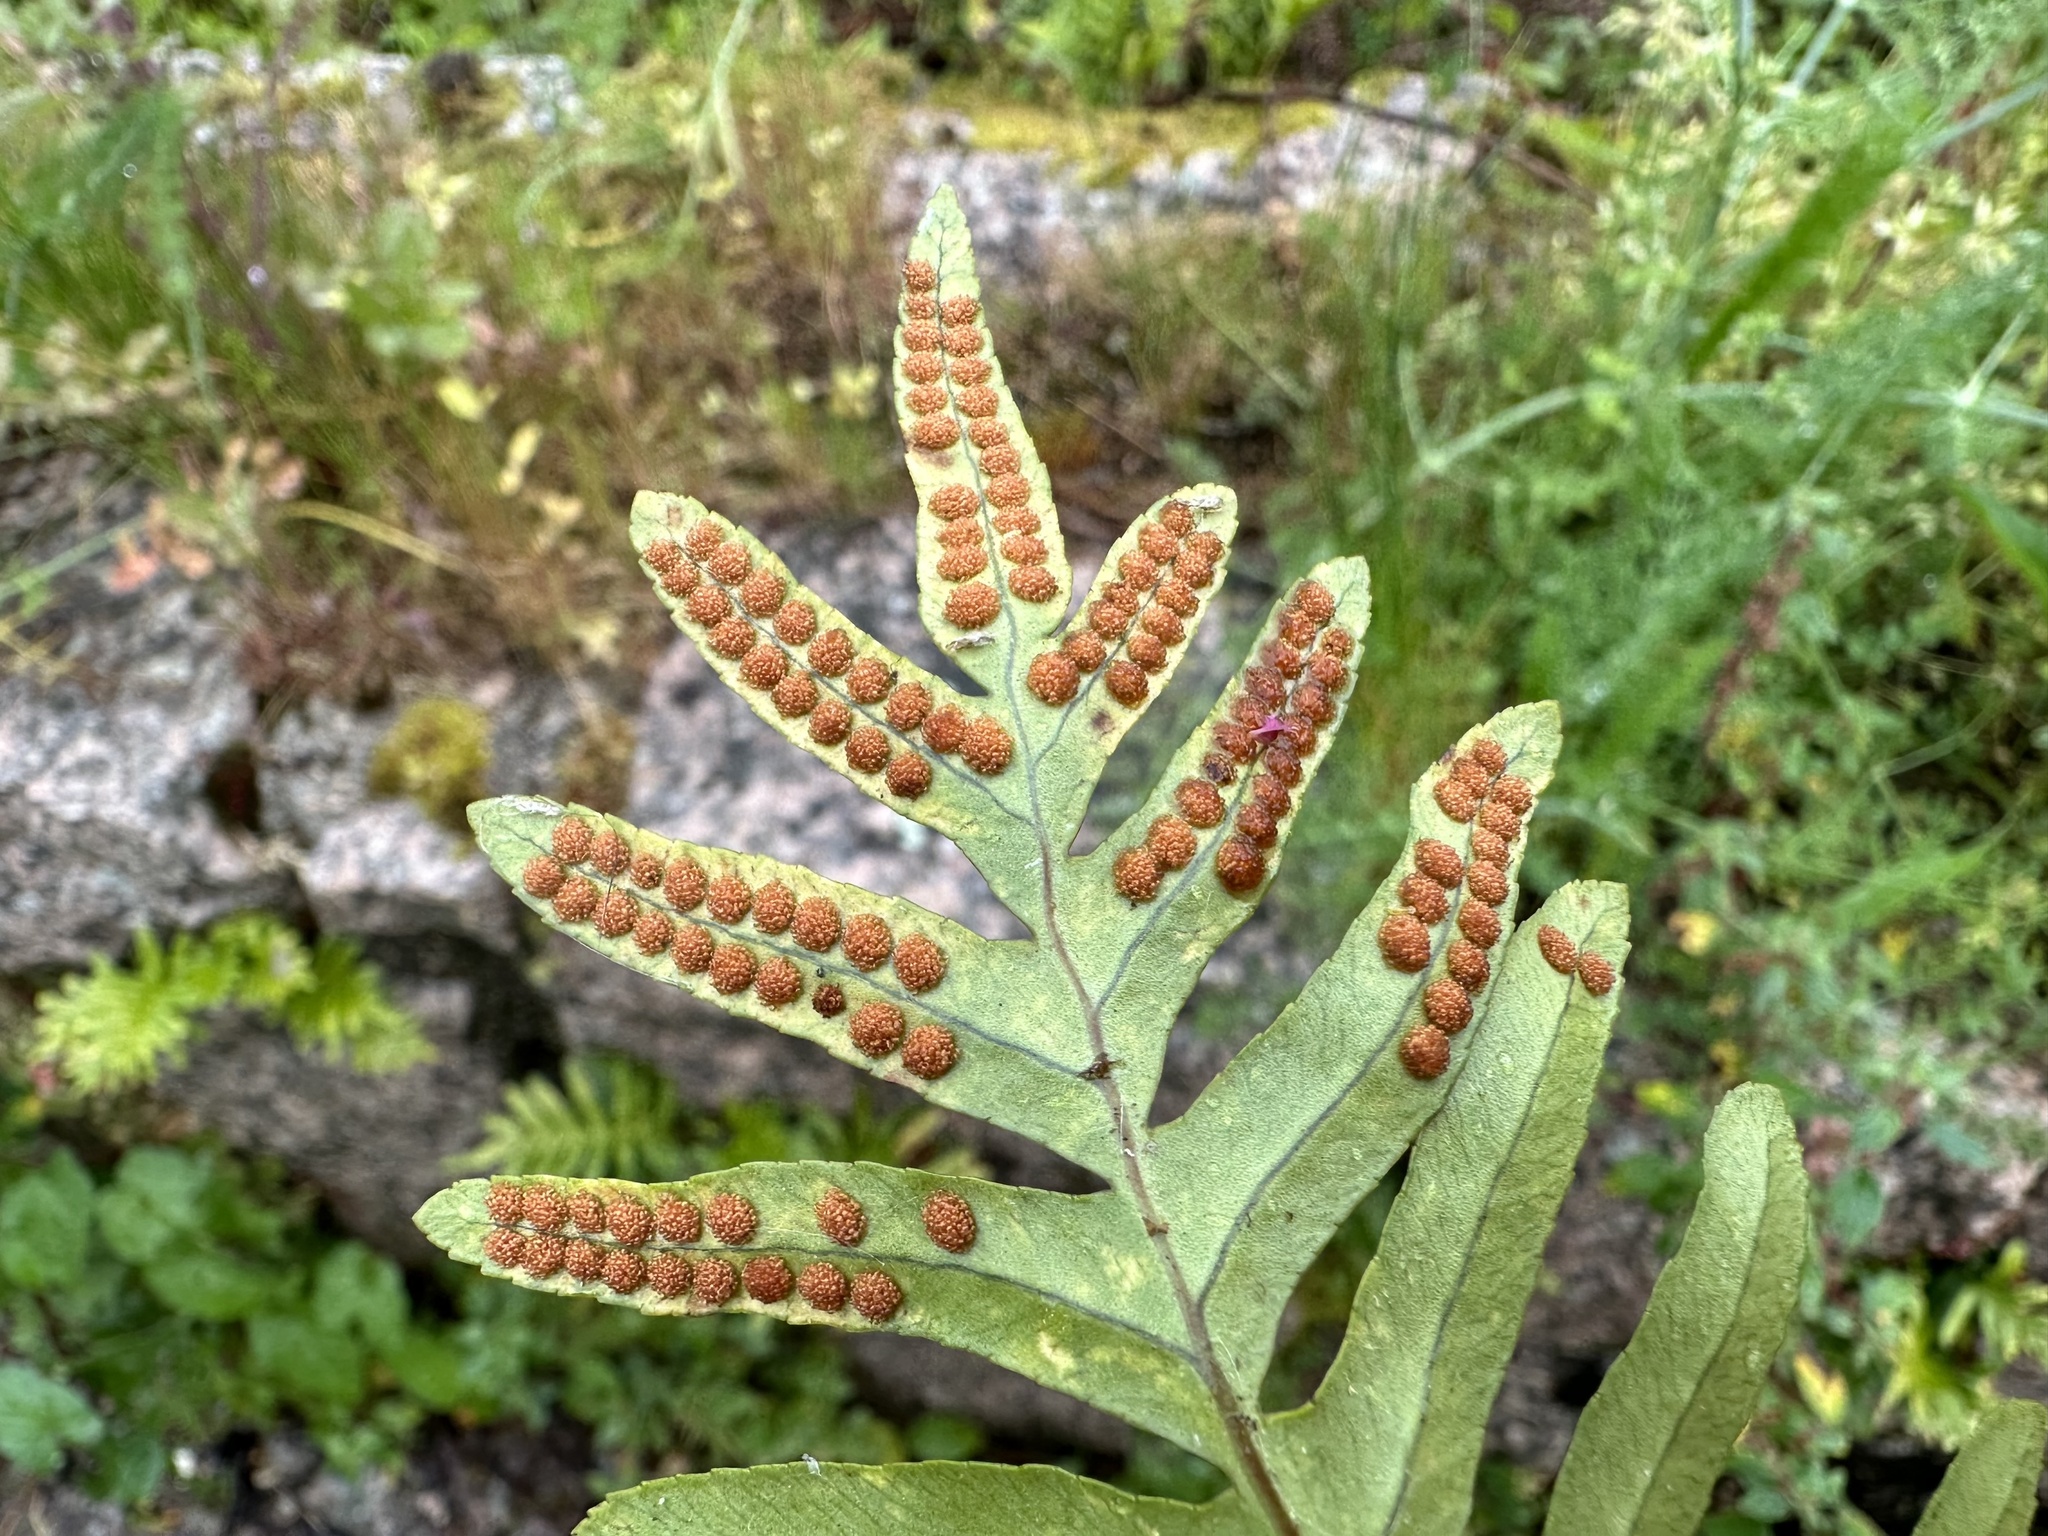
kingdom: Plantae
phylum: Tracheophyta
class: Polypodiopsida
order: Polypodiales
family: Polypodiaceae
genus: Polypodium
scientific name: Polypodium cambricum
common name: Southern polypody
